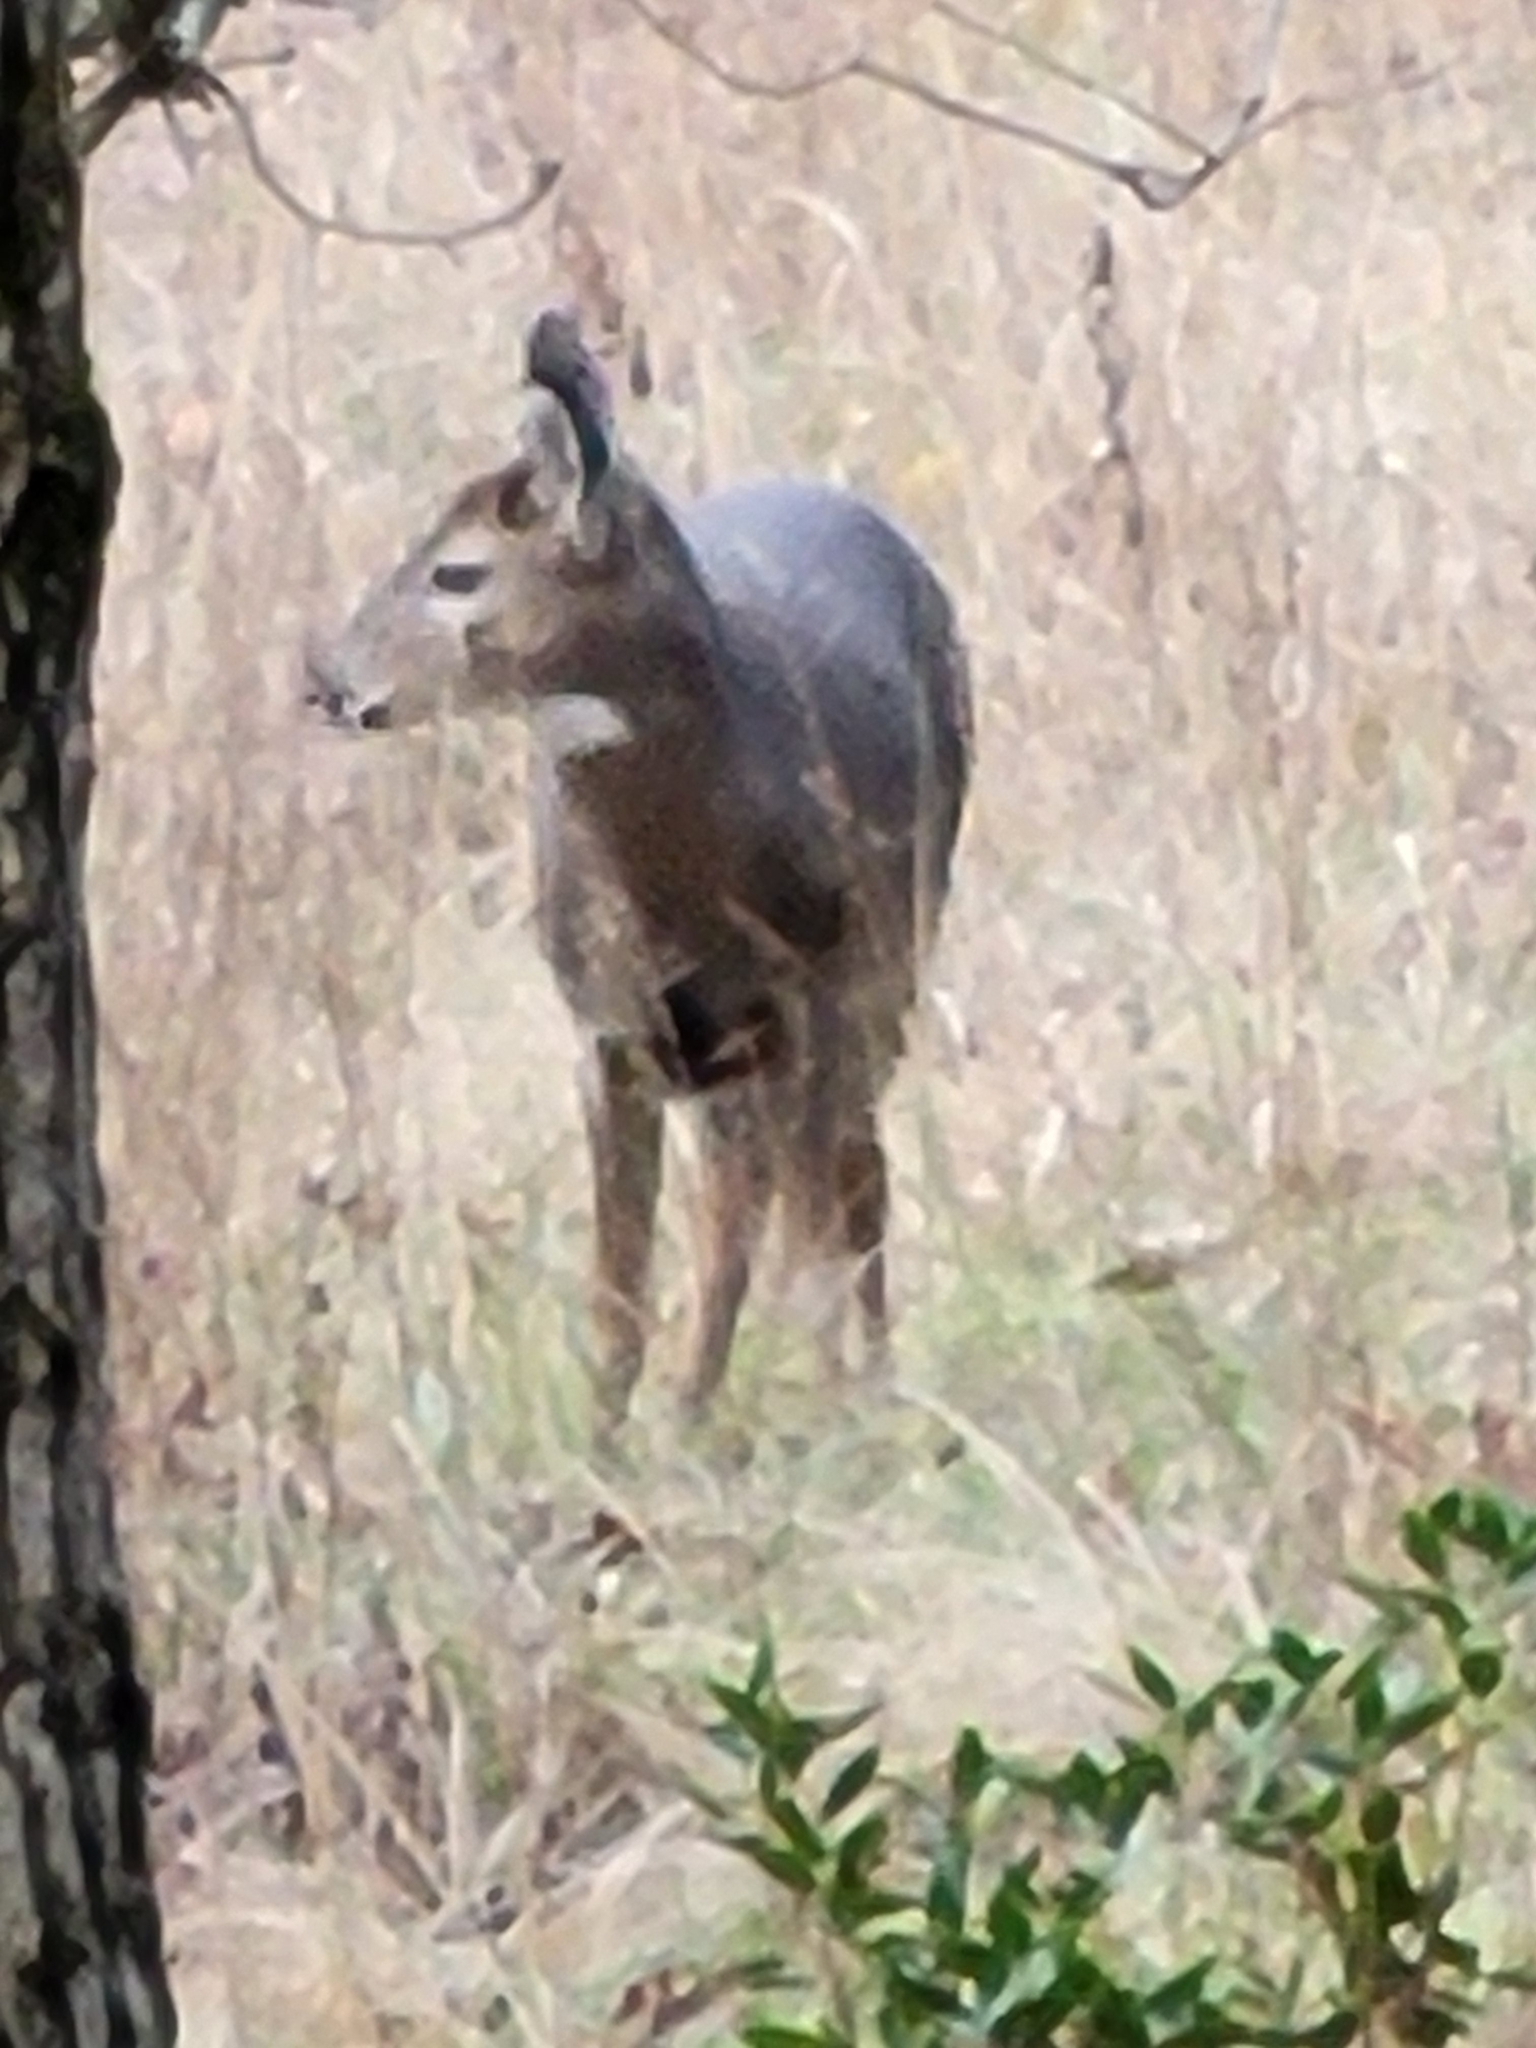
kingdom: Animalia
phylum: Chordata
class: Mammalia
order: Artiodactyla
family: Cervidae
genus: Odocoileus
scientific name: Odocoileus virginianus
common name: White-tailed deer
